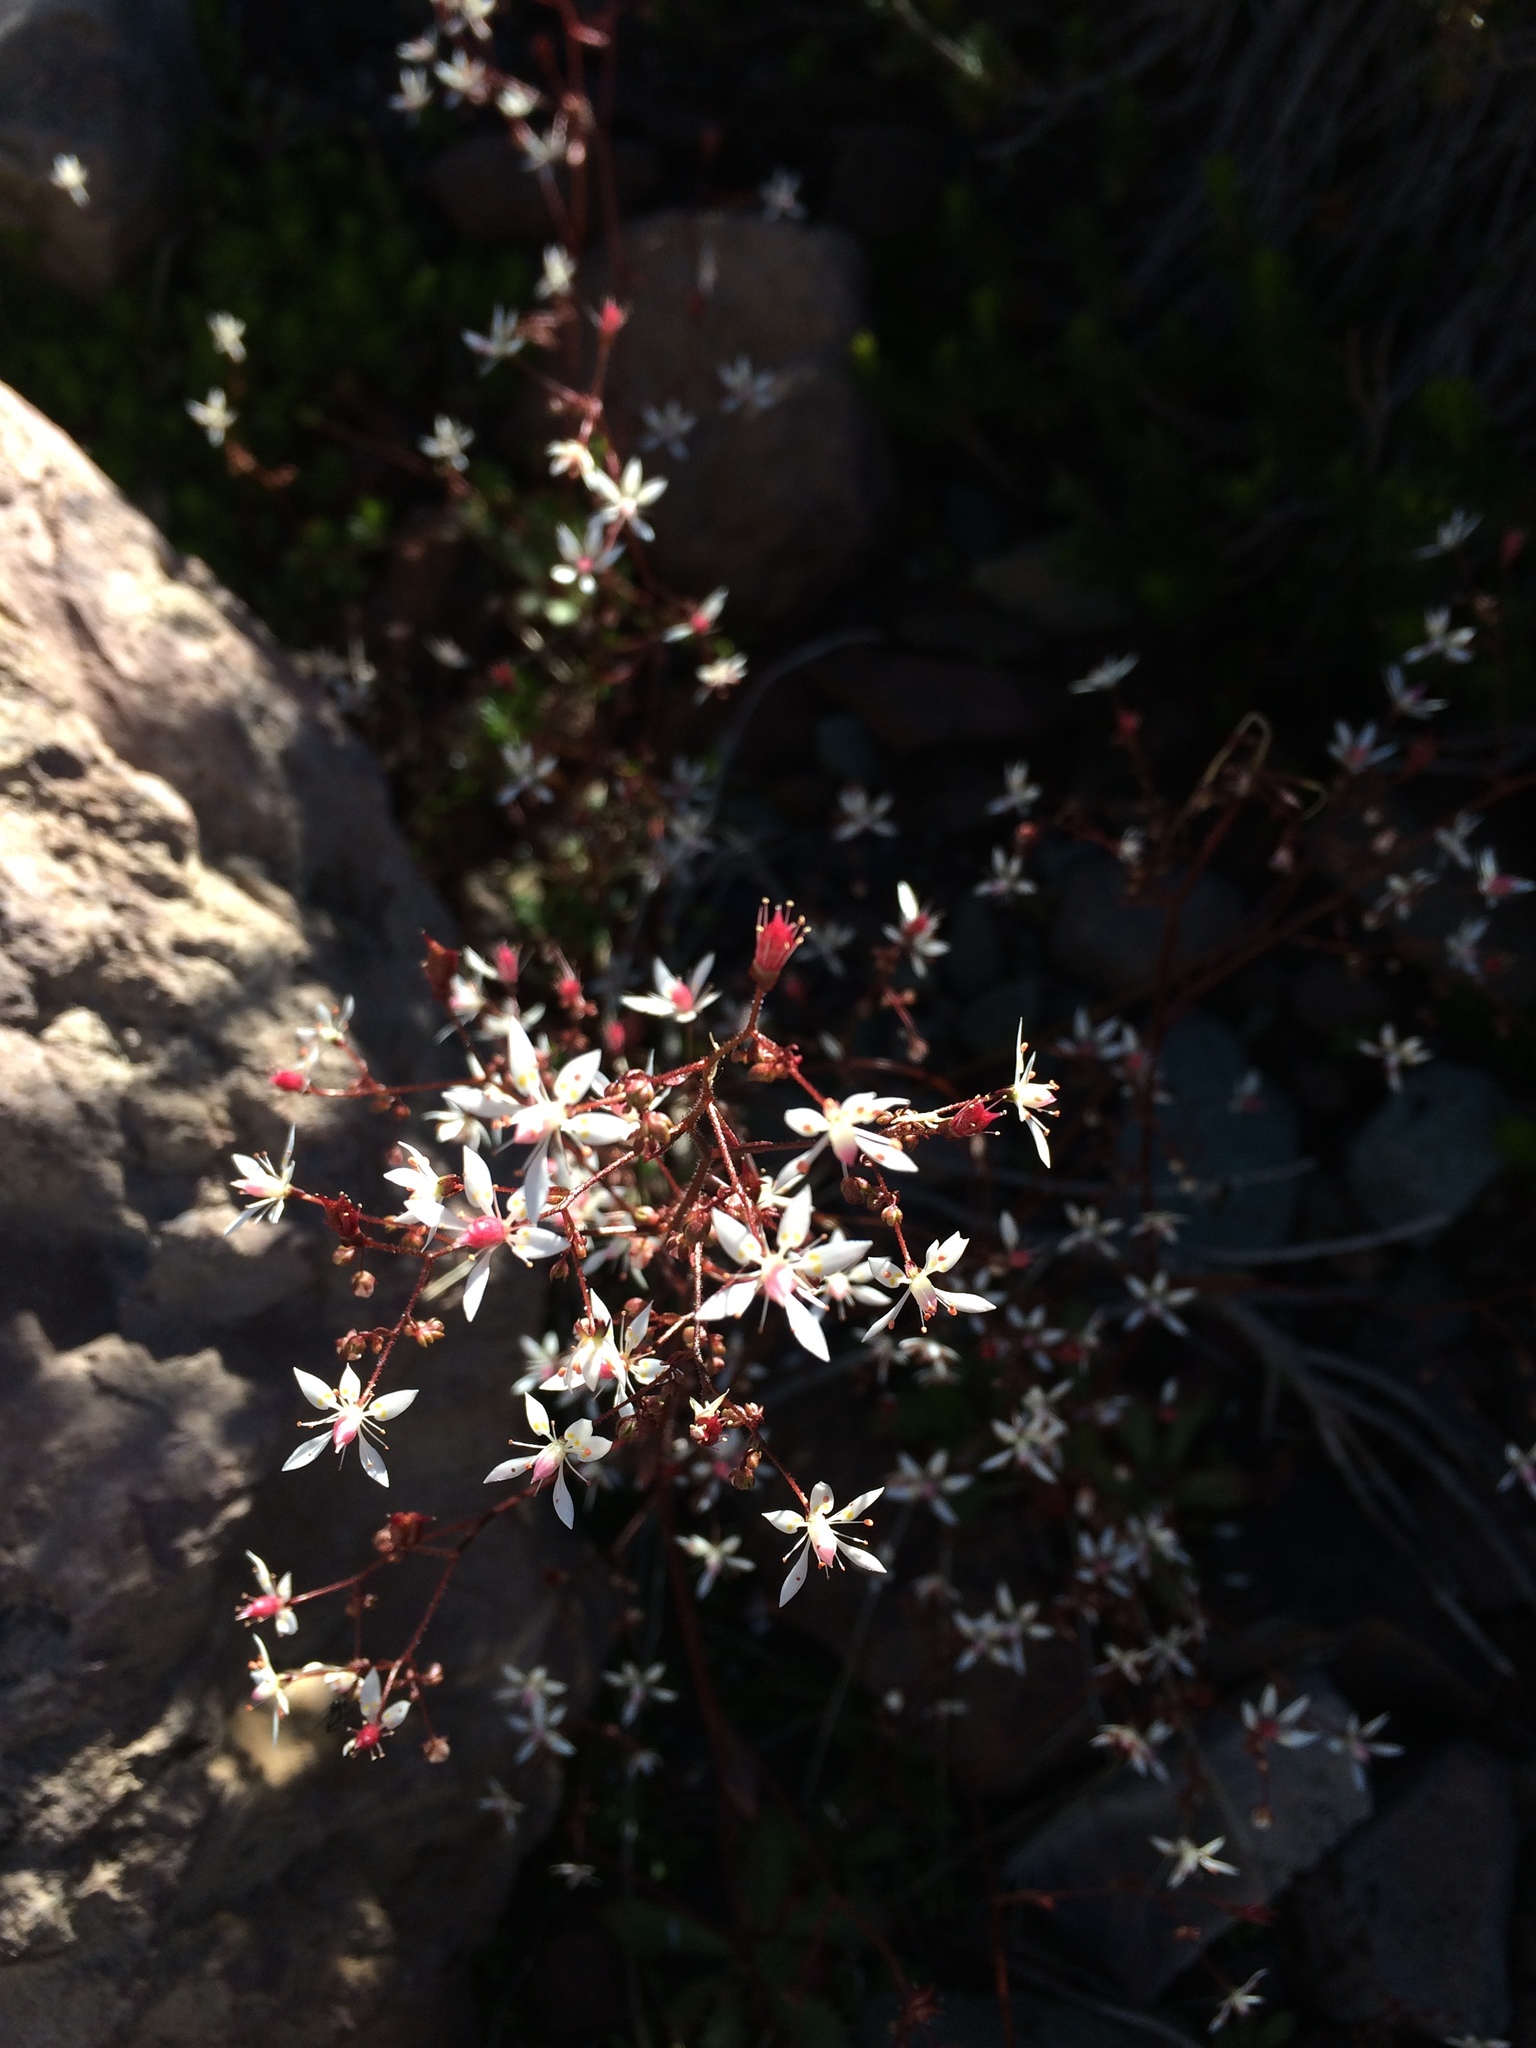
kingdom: Plantae
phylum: Tracheophyta
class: Magnoliopsida
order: Saxifragales
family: Saxifragaceae
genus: Micranthes
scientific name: Micranthes ferruginea
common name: Rusty saxifrage
